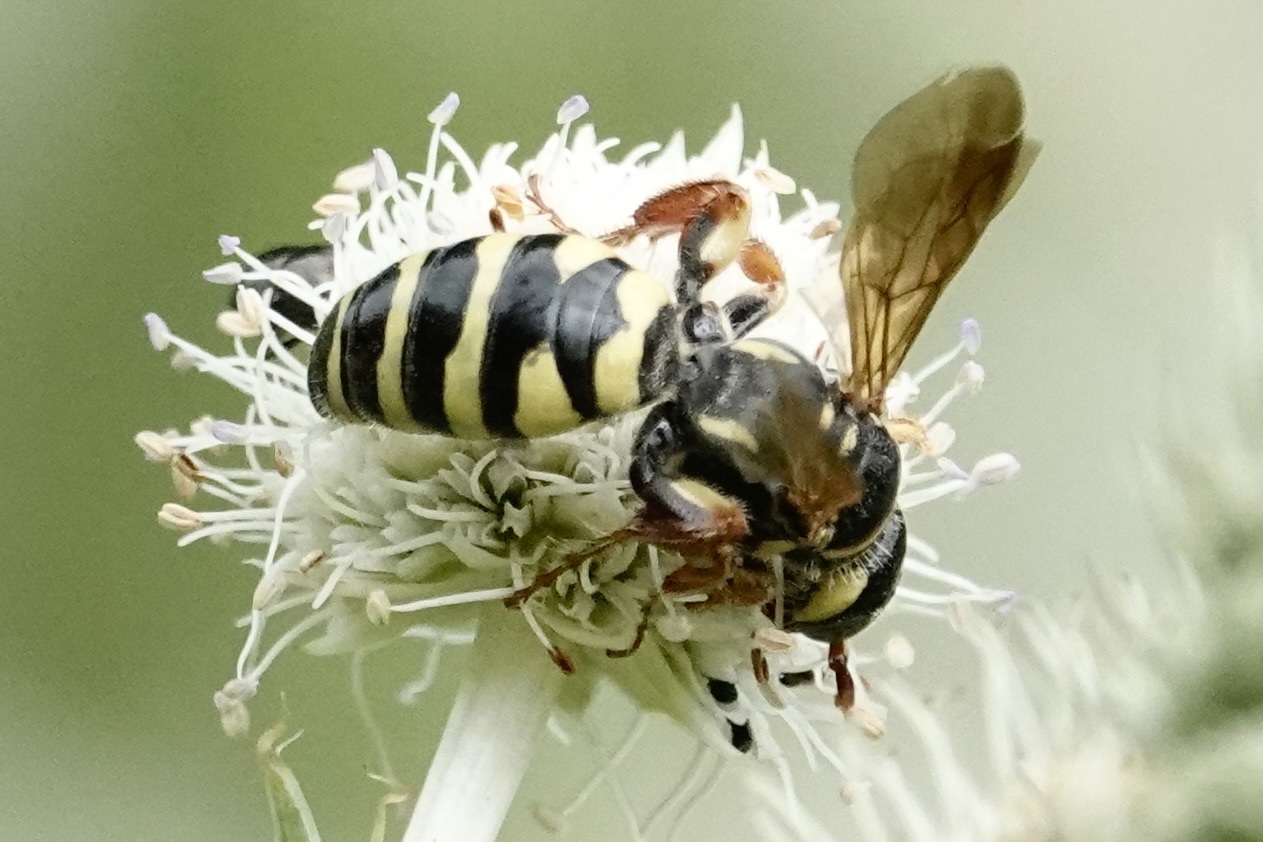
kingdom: Animalia
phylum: Arthropoda
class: Insecta
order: Hymenoptera
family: Tiphiidae
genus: Myzinum
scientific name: Myzinum quinquecinctum
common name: Five-banded thynnid wasp
